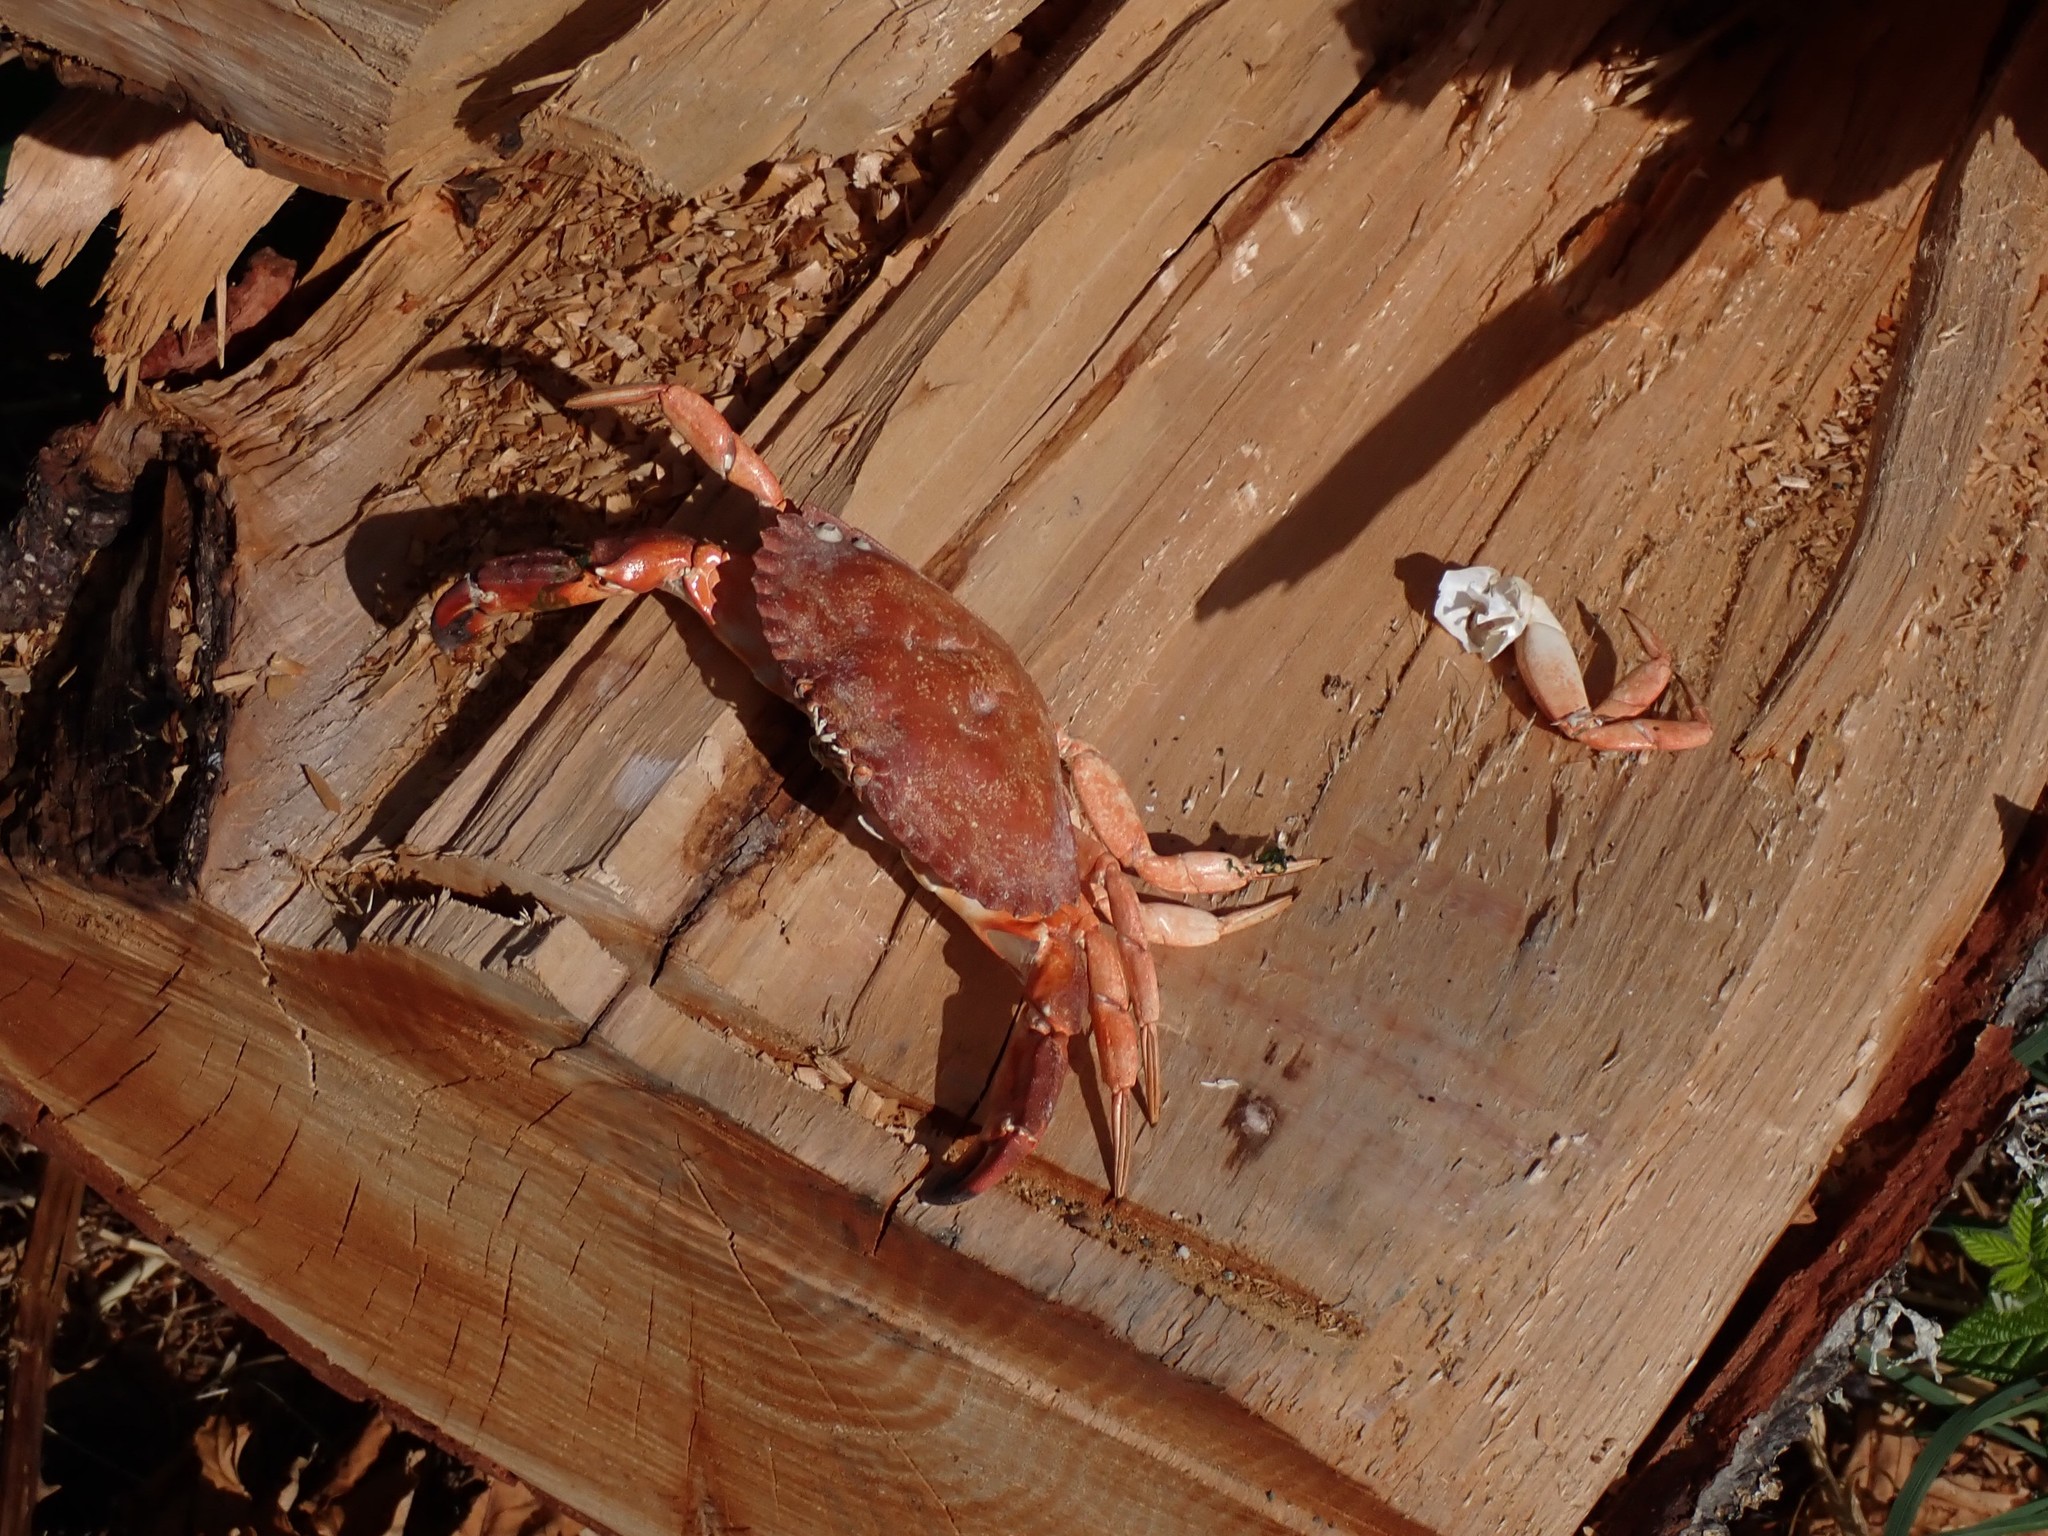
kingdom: Animalia
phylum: Arthropoda
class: Malacostraca
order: Decapoda
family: Cancridae
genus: Cancer
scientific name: Cancer productus
